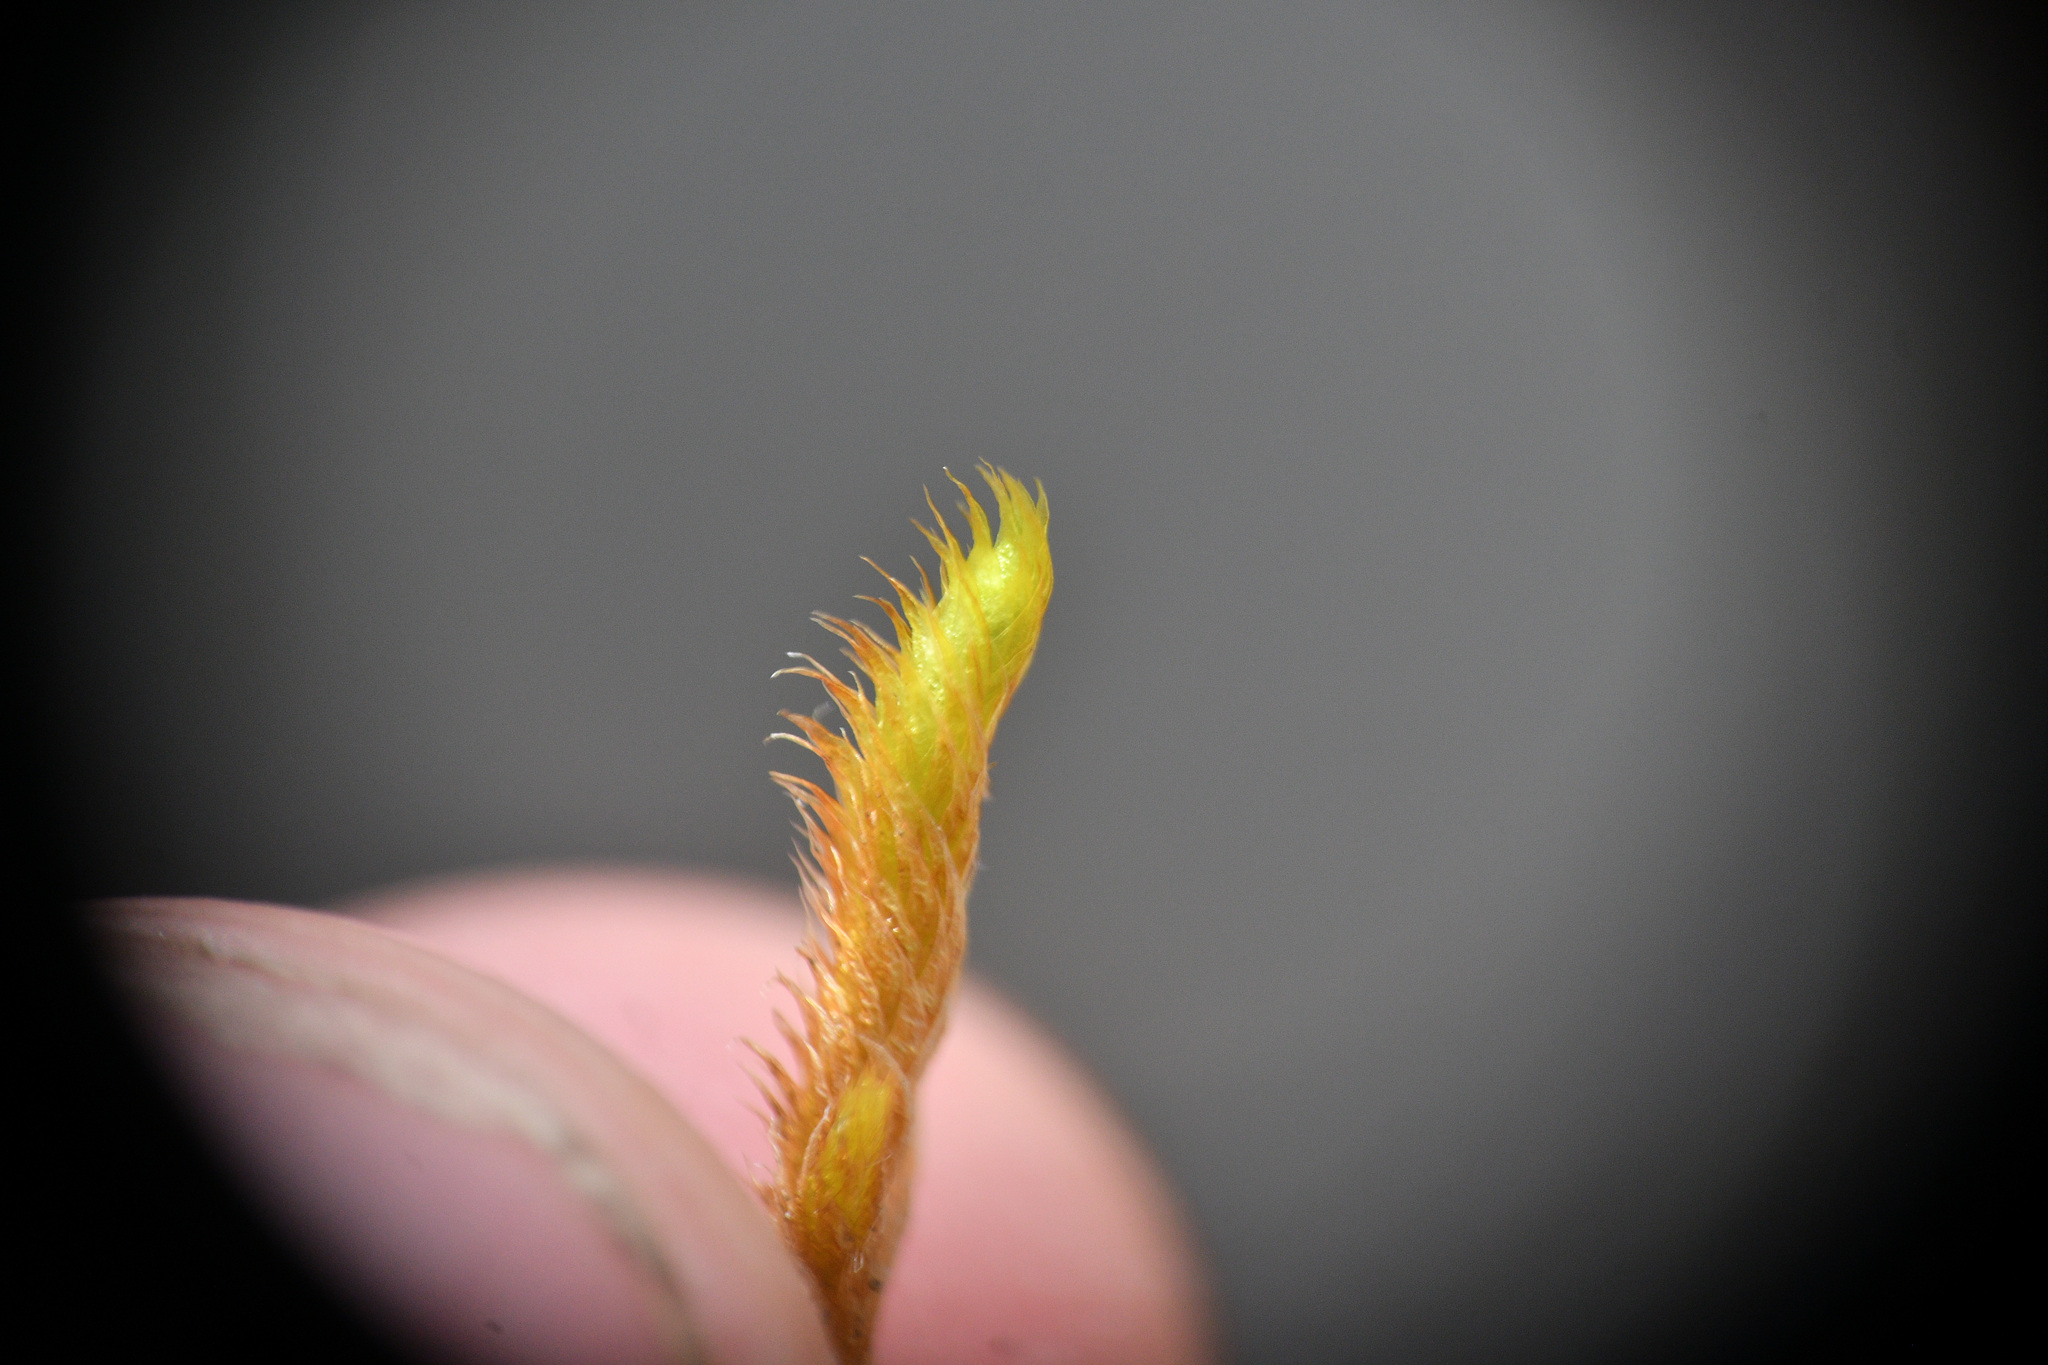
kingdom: Plantae
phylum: Bryophyta
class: Bryopsida
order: Hypnales
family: Rhytidiaceae
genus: Rhytidium
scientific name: Rhytidium rugosum
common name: Wrinkle-leaved moss
